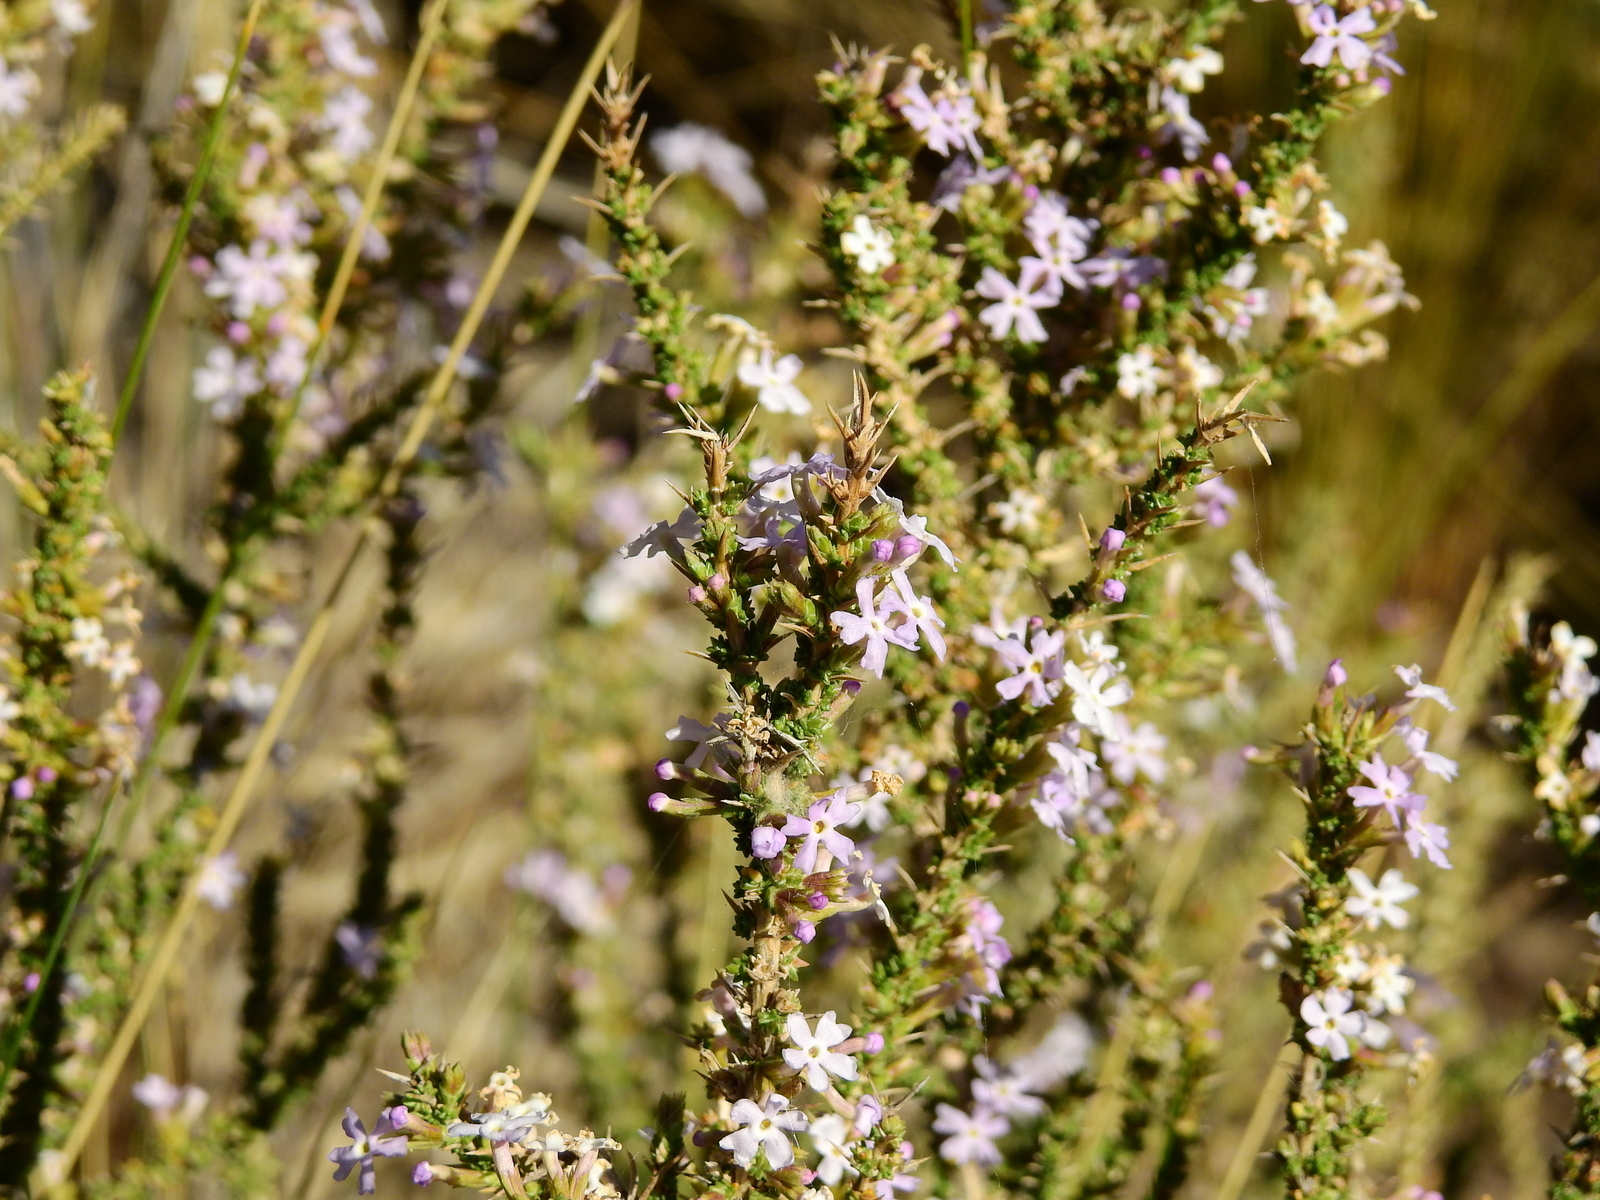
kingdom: Plantae
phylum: Tracheophyta
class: Magnoliopsida
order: Lamiales
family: Verbenaceae
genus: Junellia
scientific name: Junellia seriphioides
